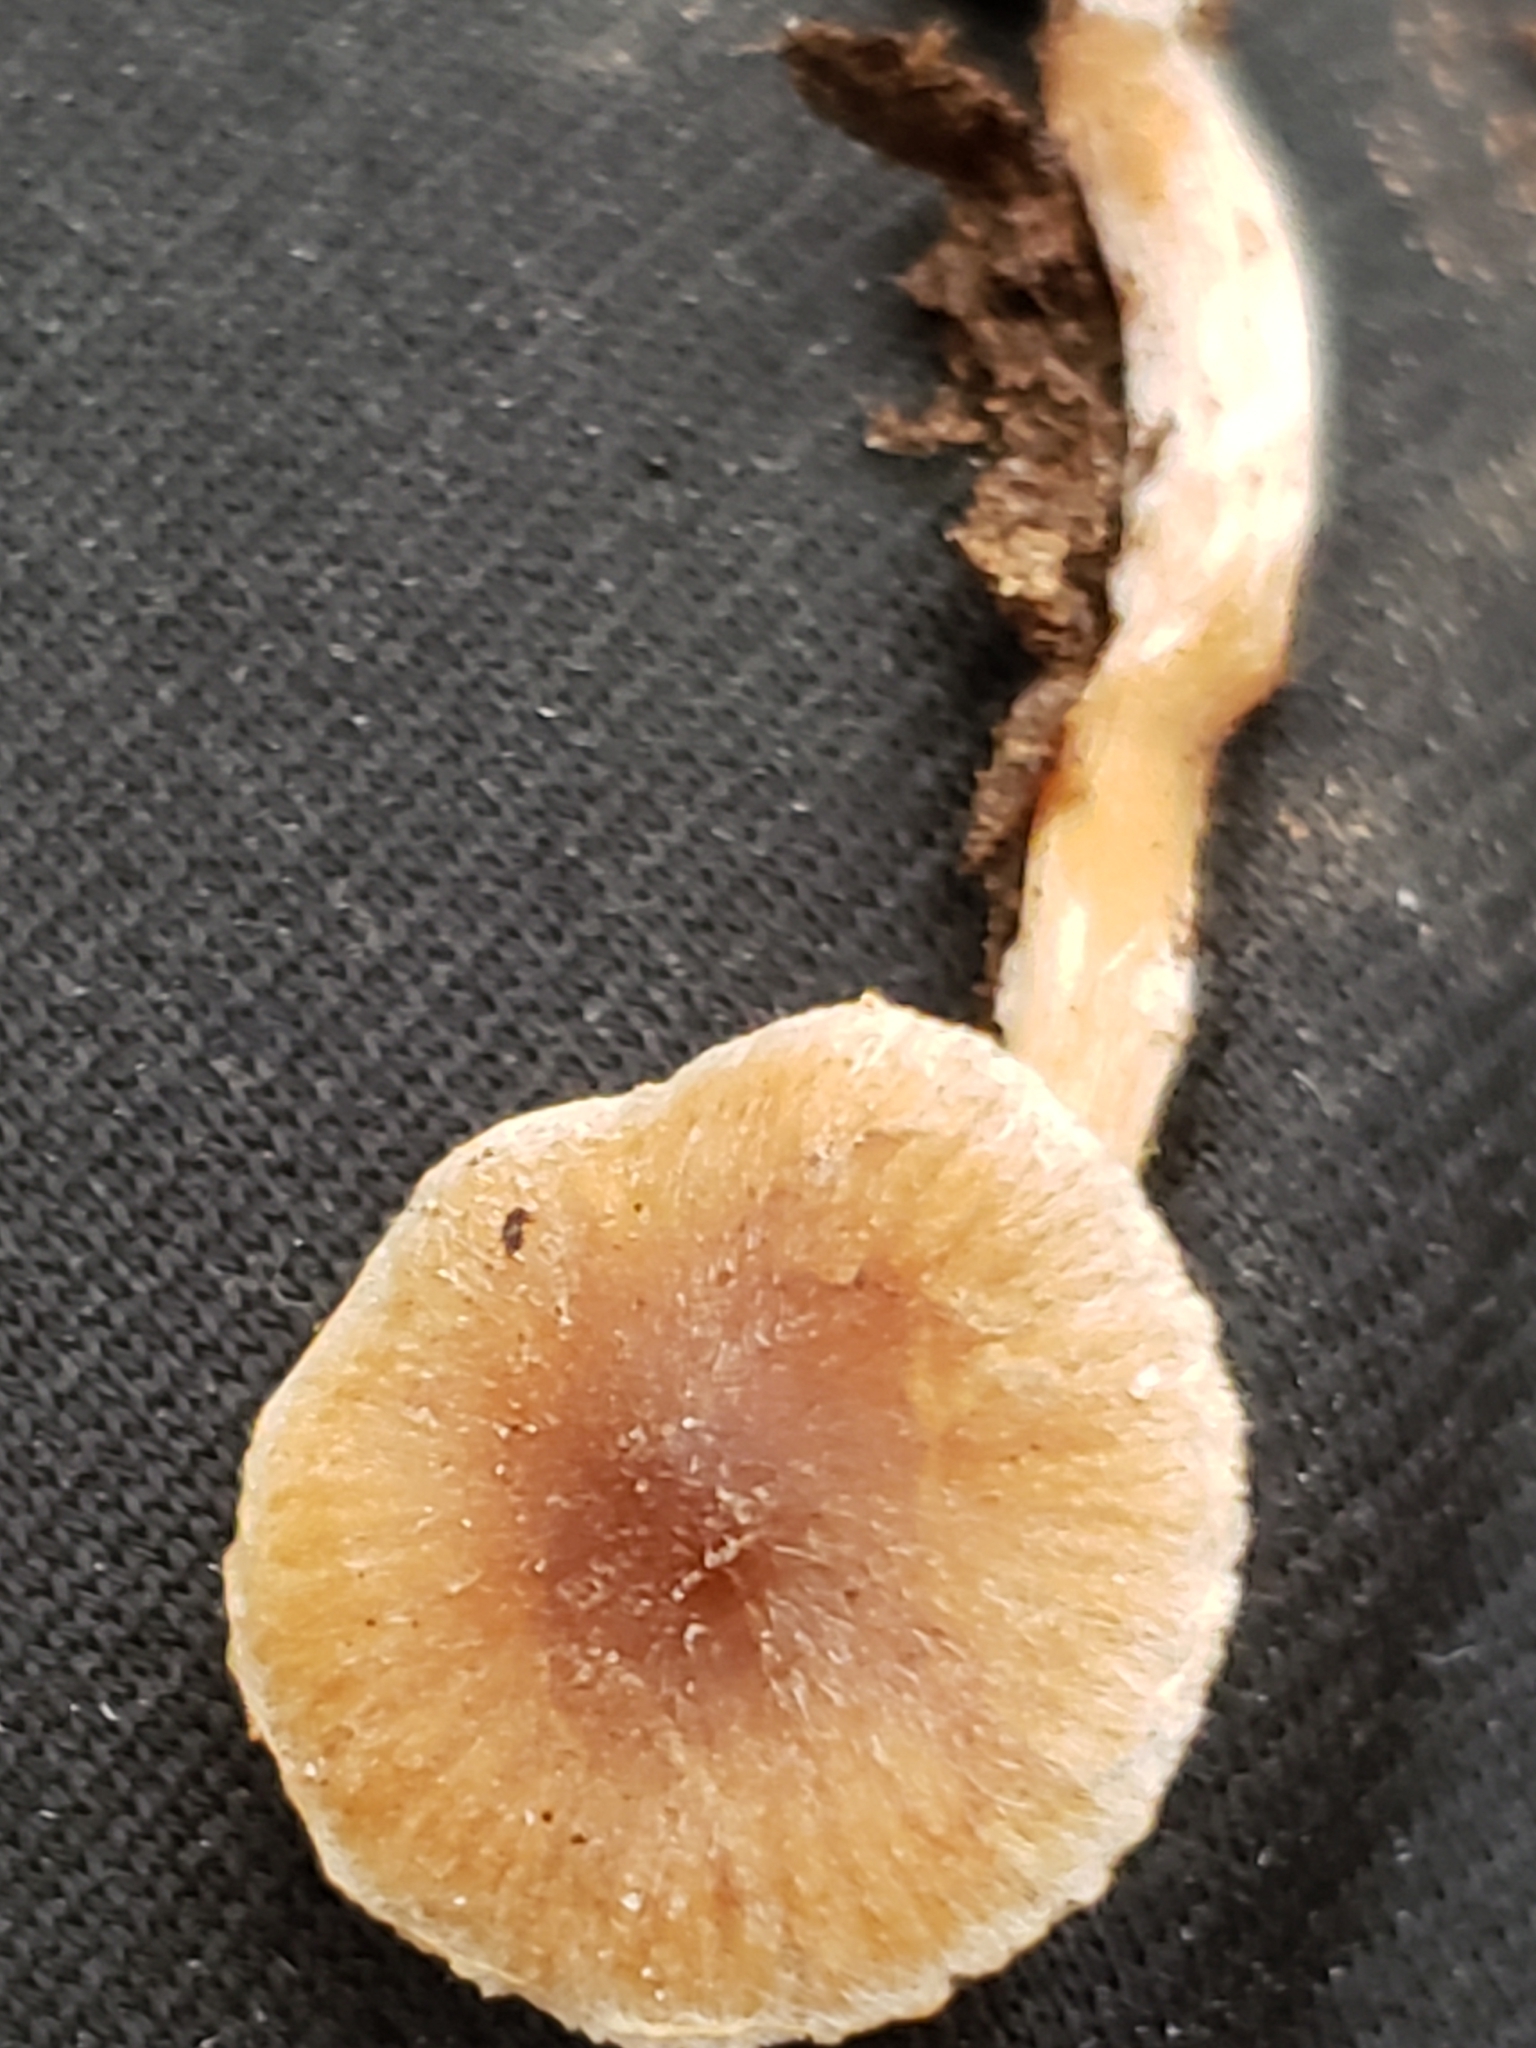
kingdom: Fungi
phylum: Basidiomycota
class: Agaricomycetes
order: Agaricales
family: Tubariaceae
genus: Tubaria
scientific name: Tubaria furfuracea
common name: Scurfy twiglet
